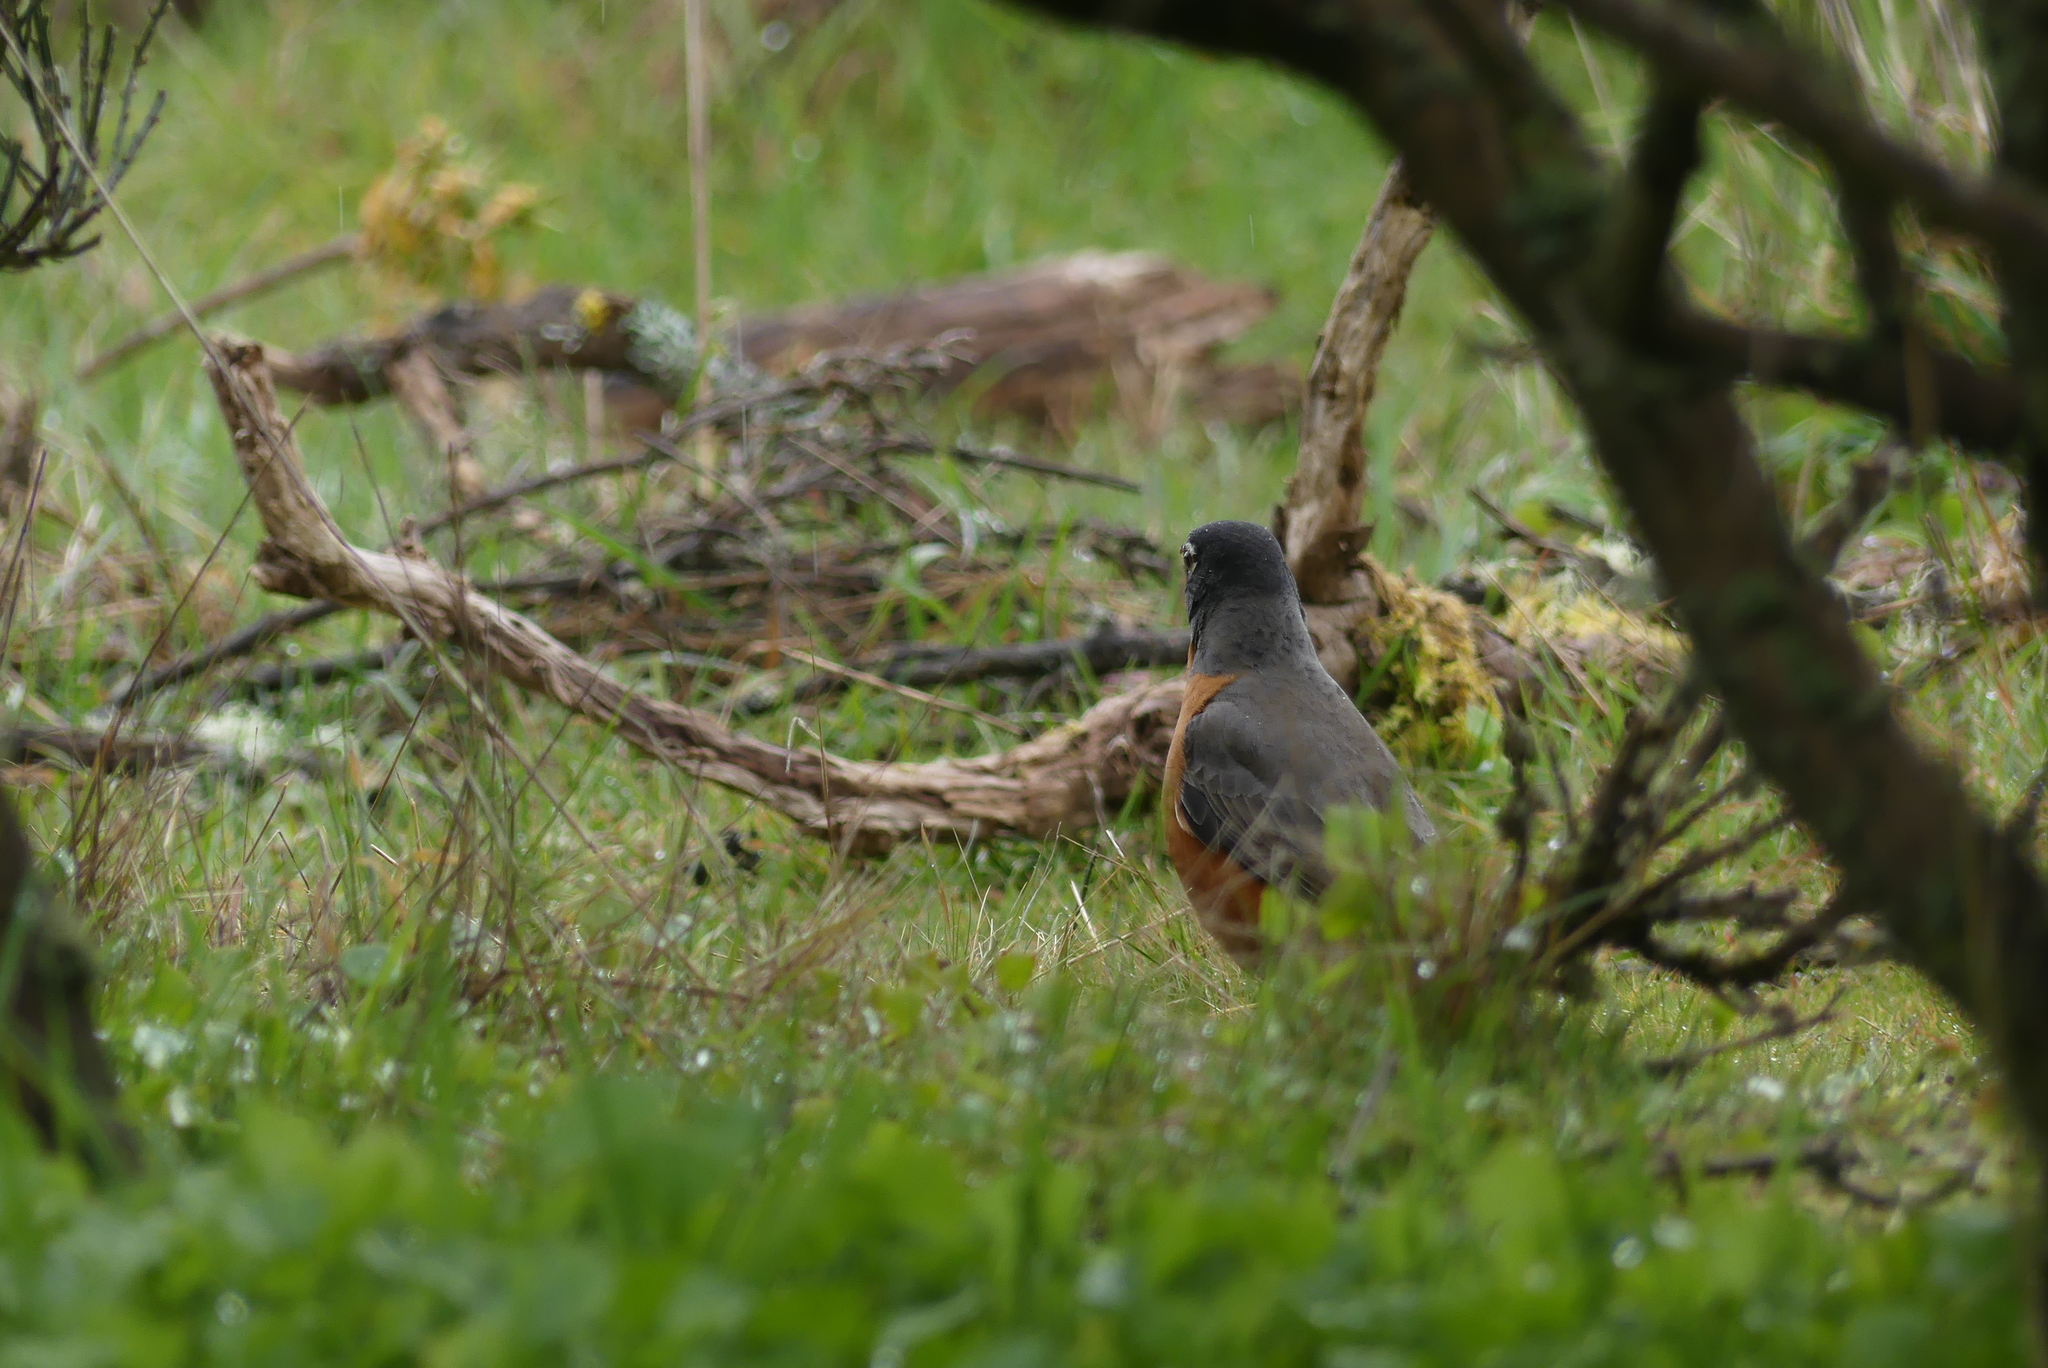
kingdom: Animalia
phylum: Chordata
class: Aves
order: Passeriformes
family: Turdidae
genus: Turdus
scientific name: Turdus migratorius
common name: American robin
